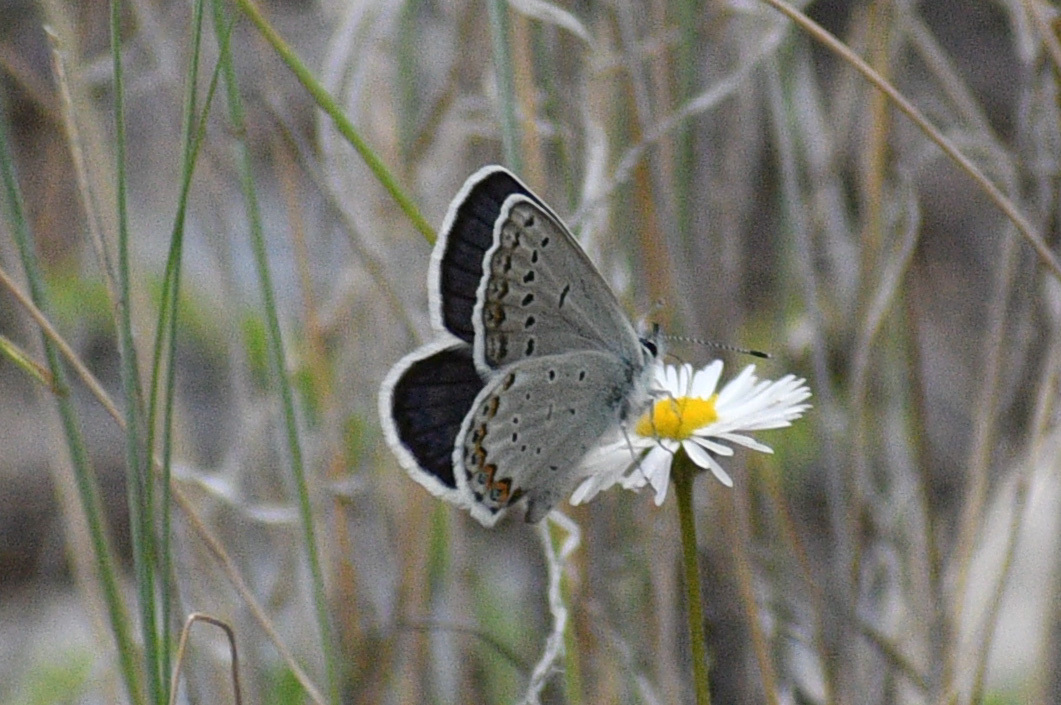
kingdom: Animalia
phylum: Arthropoda
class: Insecta
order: Lepidoptera
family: Lycaenidae
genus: Lycaeides
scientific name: Lycaeides idas
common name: Northern blue
